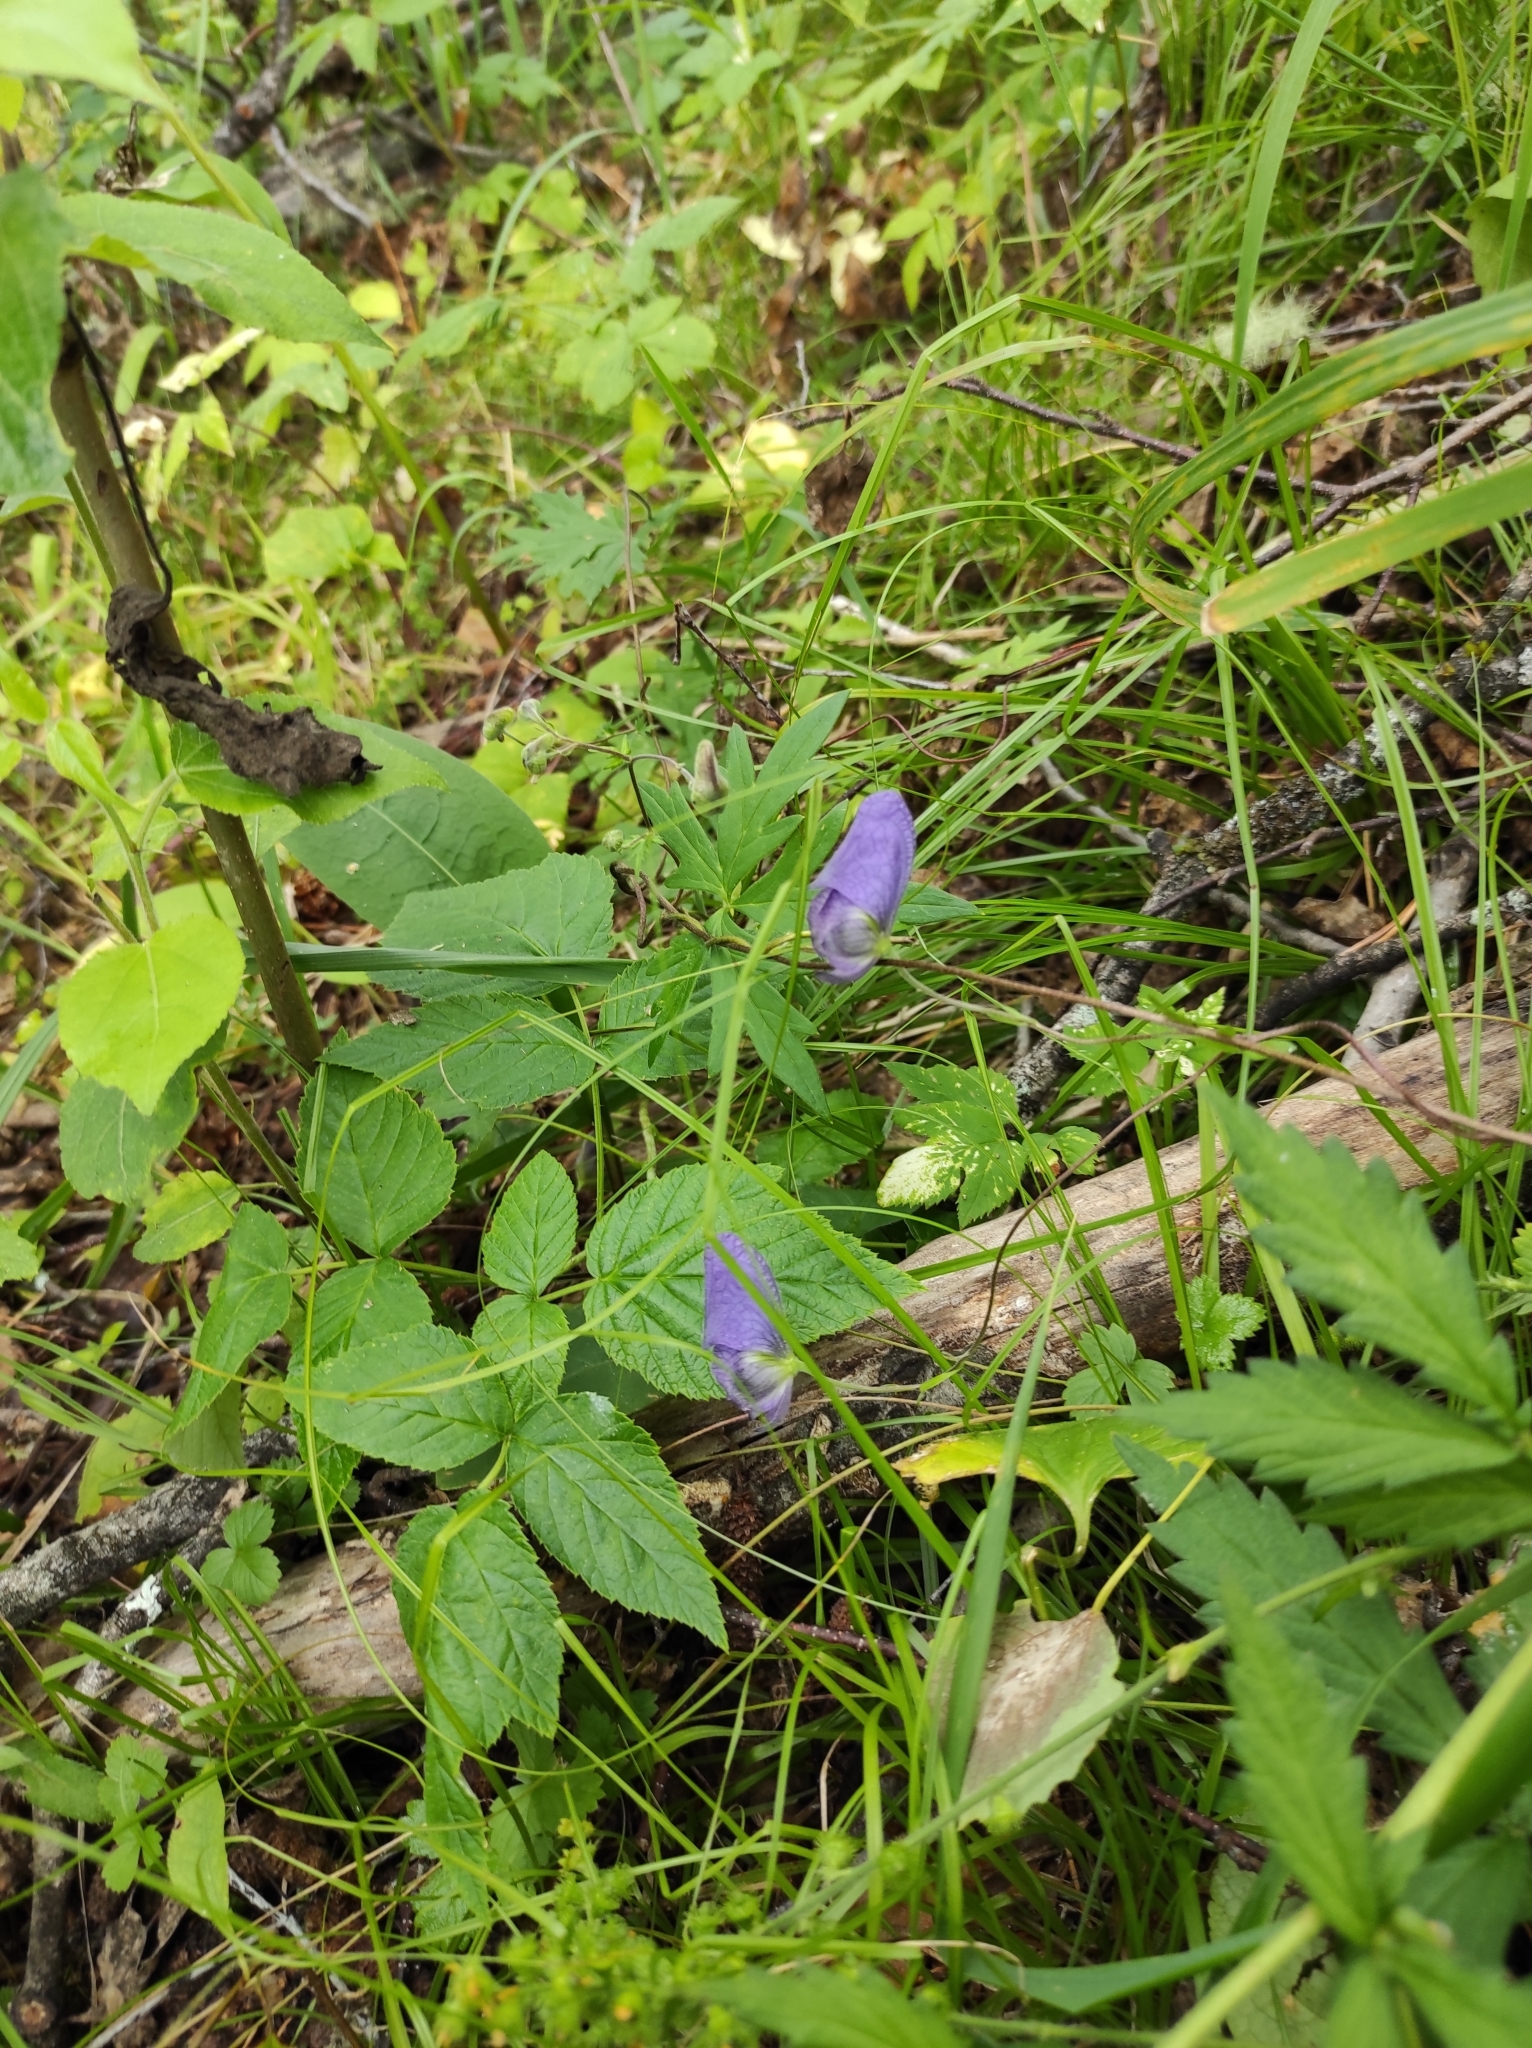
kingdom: Plantae
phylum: Tracheophyta
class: Magnoliopsida
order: Ranunculales
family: Ranunculaceae
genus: Aconitum
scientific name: Aconitum volubile
